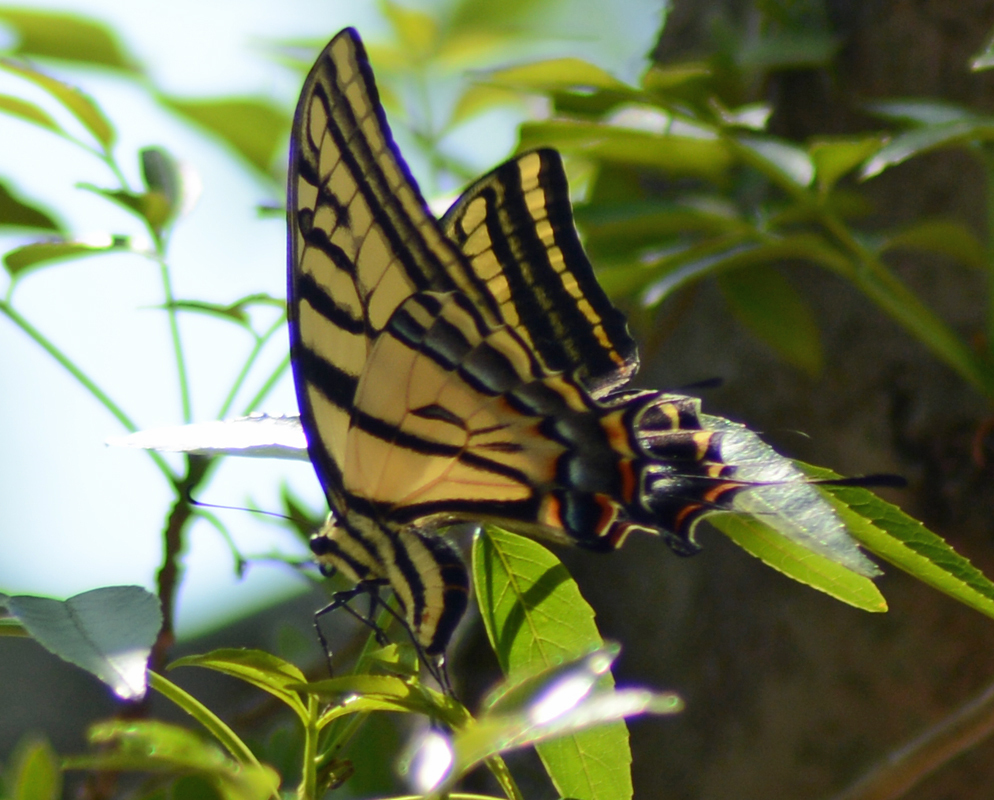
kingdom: Animalia
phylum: Arthropoda
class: Insecta
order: Lepidoptera
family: Papilionidae
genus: Papilio
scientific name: Papilio multicaudata
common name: Two-tailed tiger swallowtail
